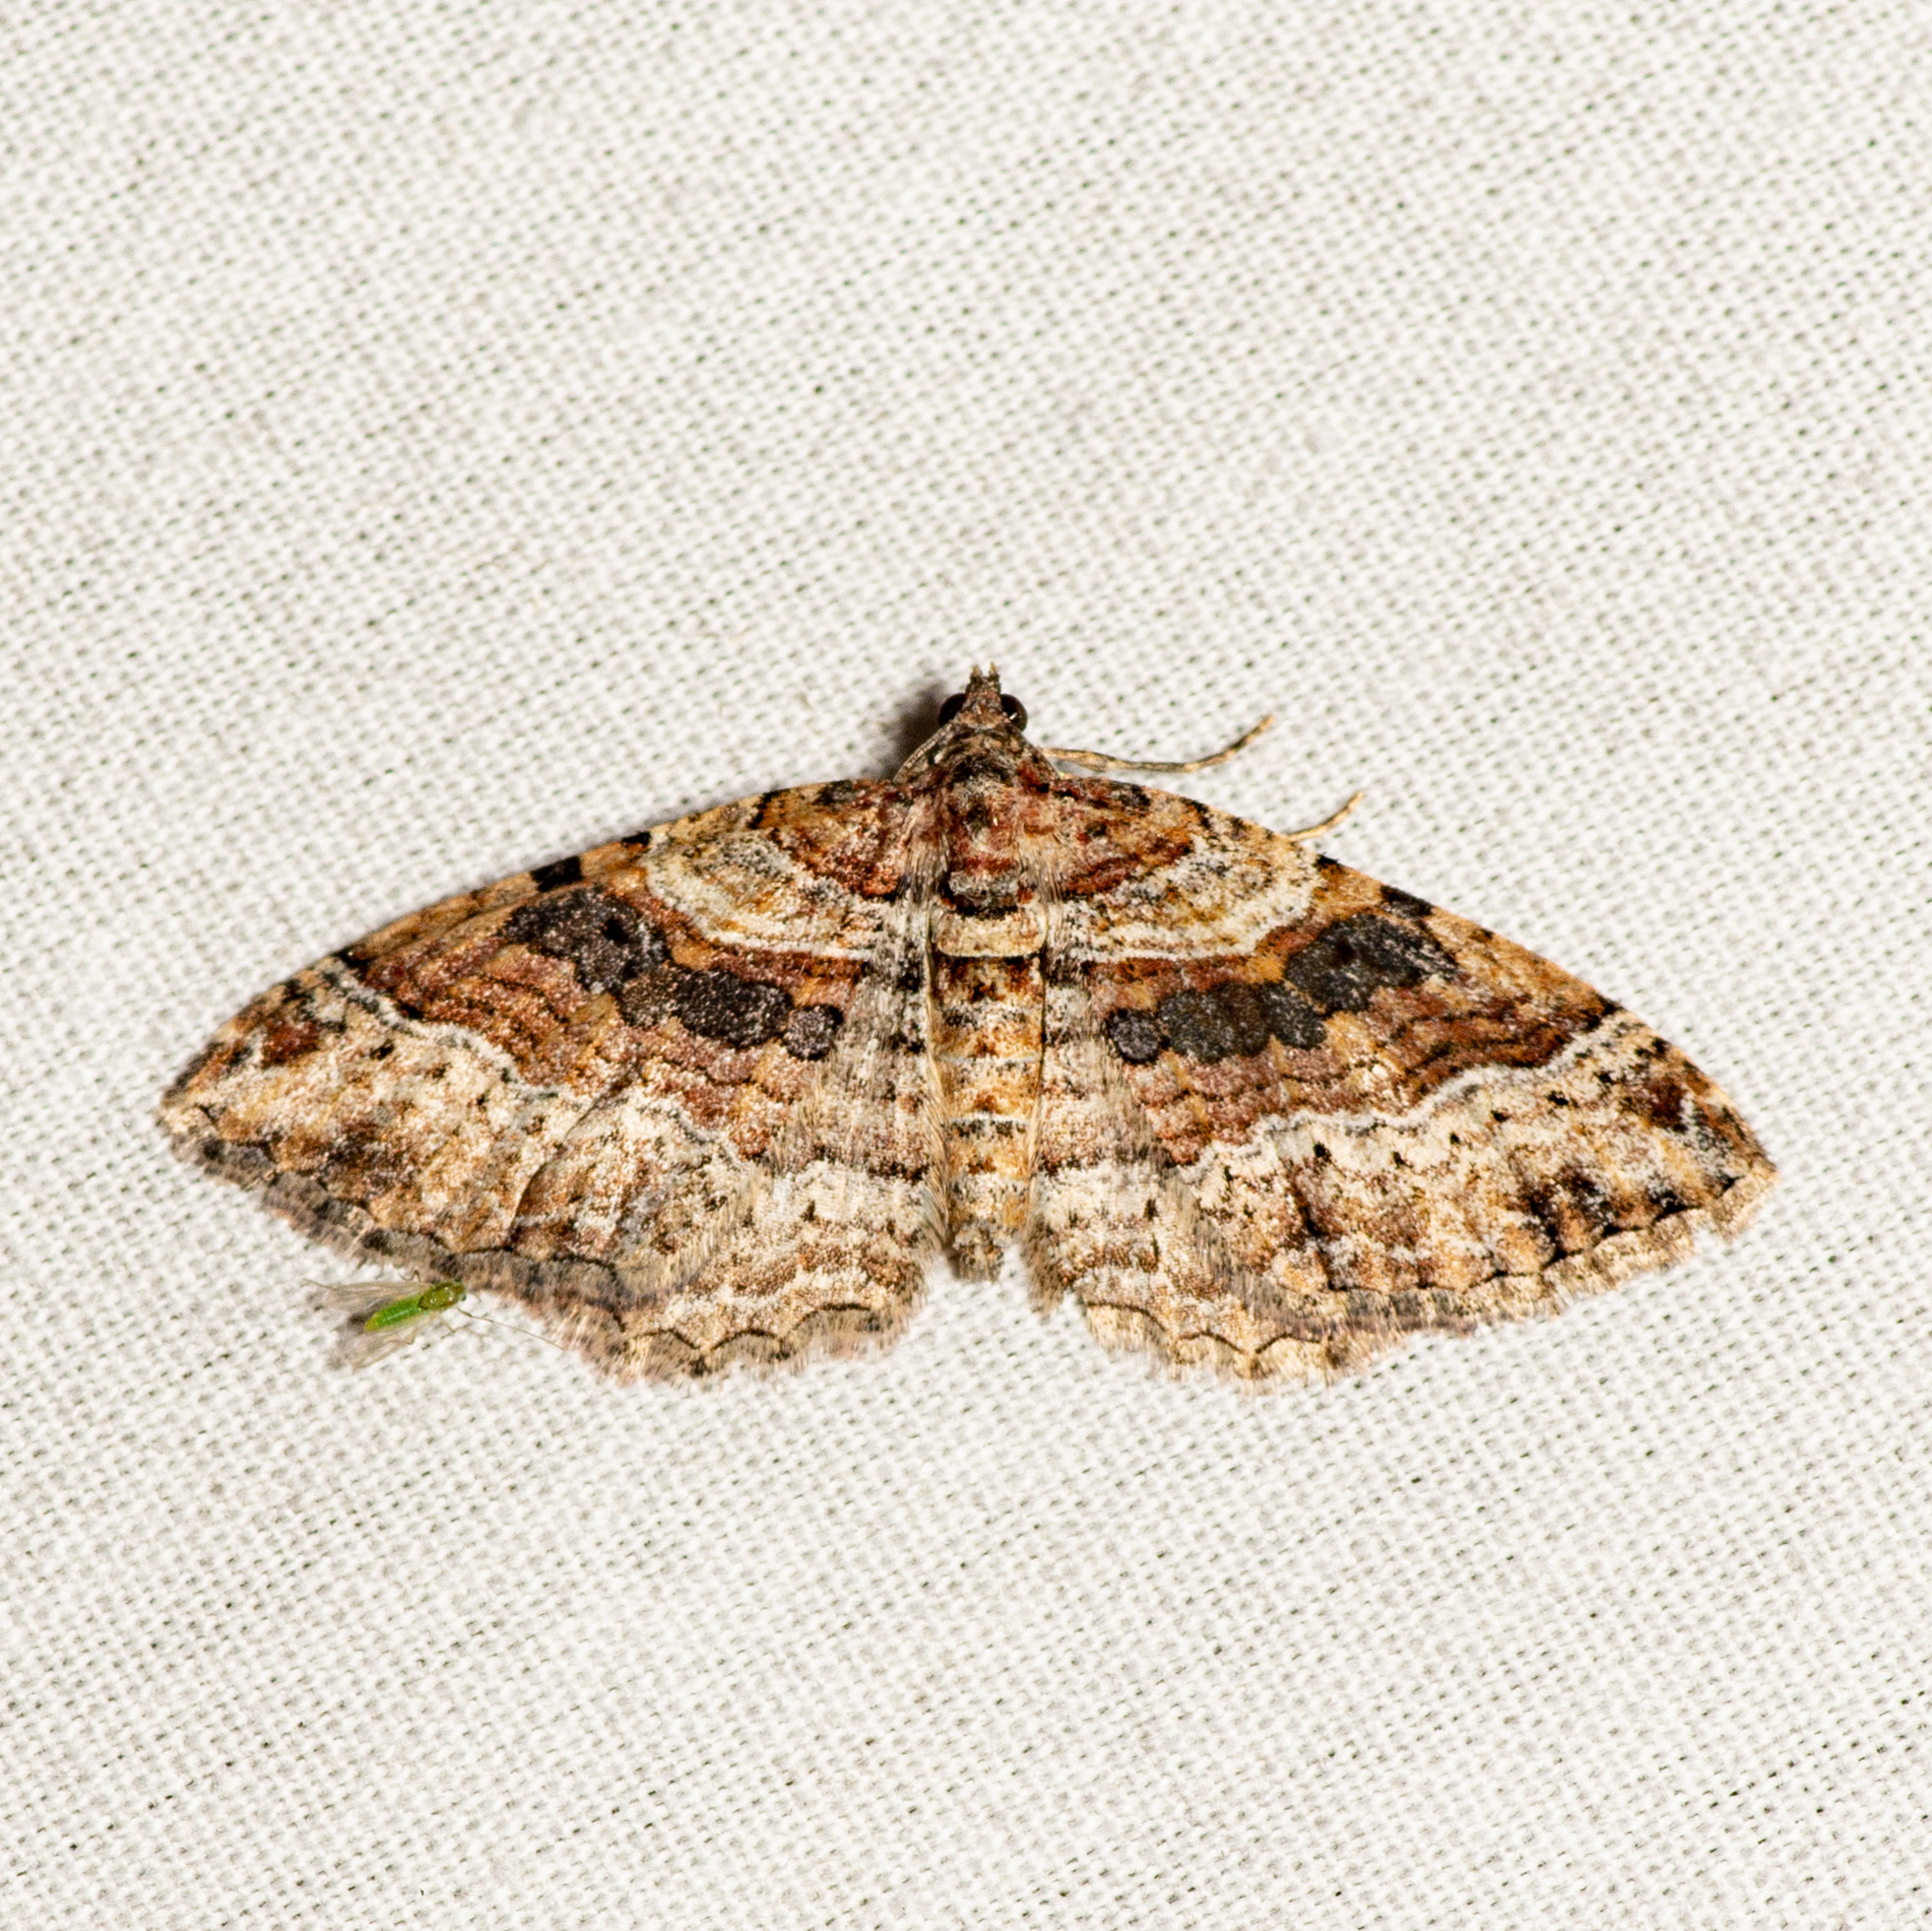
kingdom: Animalia
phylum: Arthropoda
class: Insecta
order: Lepidoptera
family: Geometridae
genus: Costaconvexa
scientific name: Costaconvexa centrostrigaria
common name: Bent-line carpet
